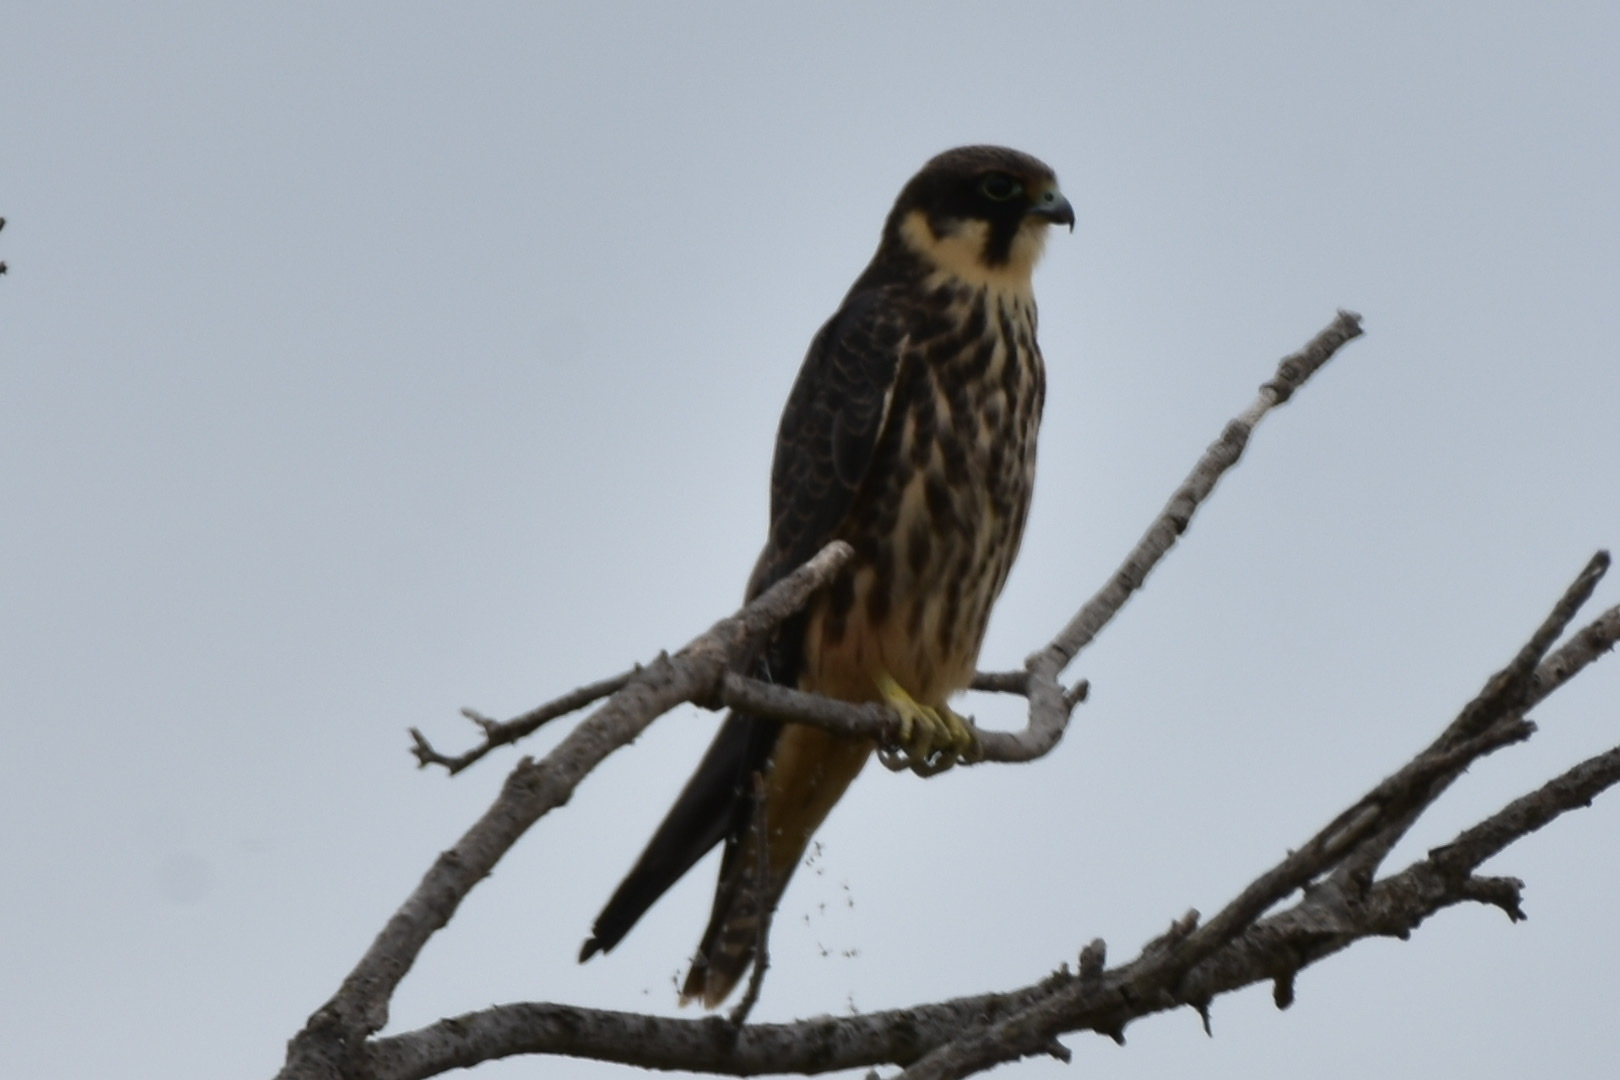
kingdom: Animalia
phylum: Chordata
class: Aves
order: Falconiformes
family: Falconidae
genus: Falco
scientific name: Falco subbuteo
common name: Eurasian hobby
